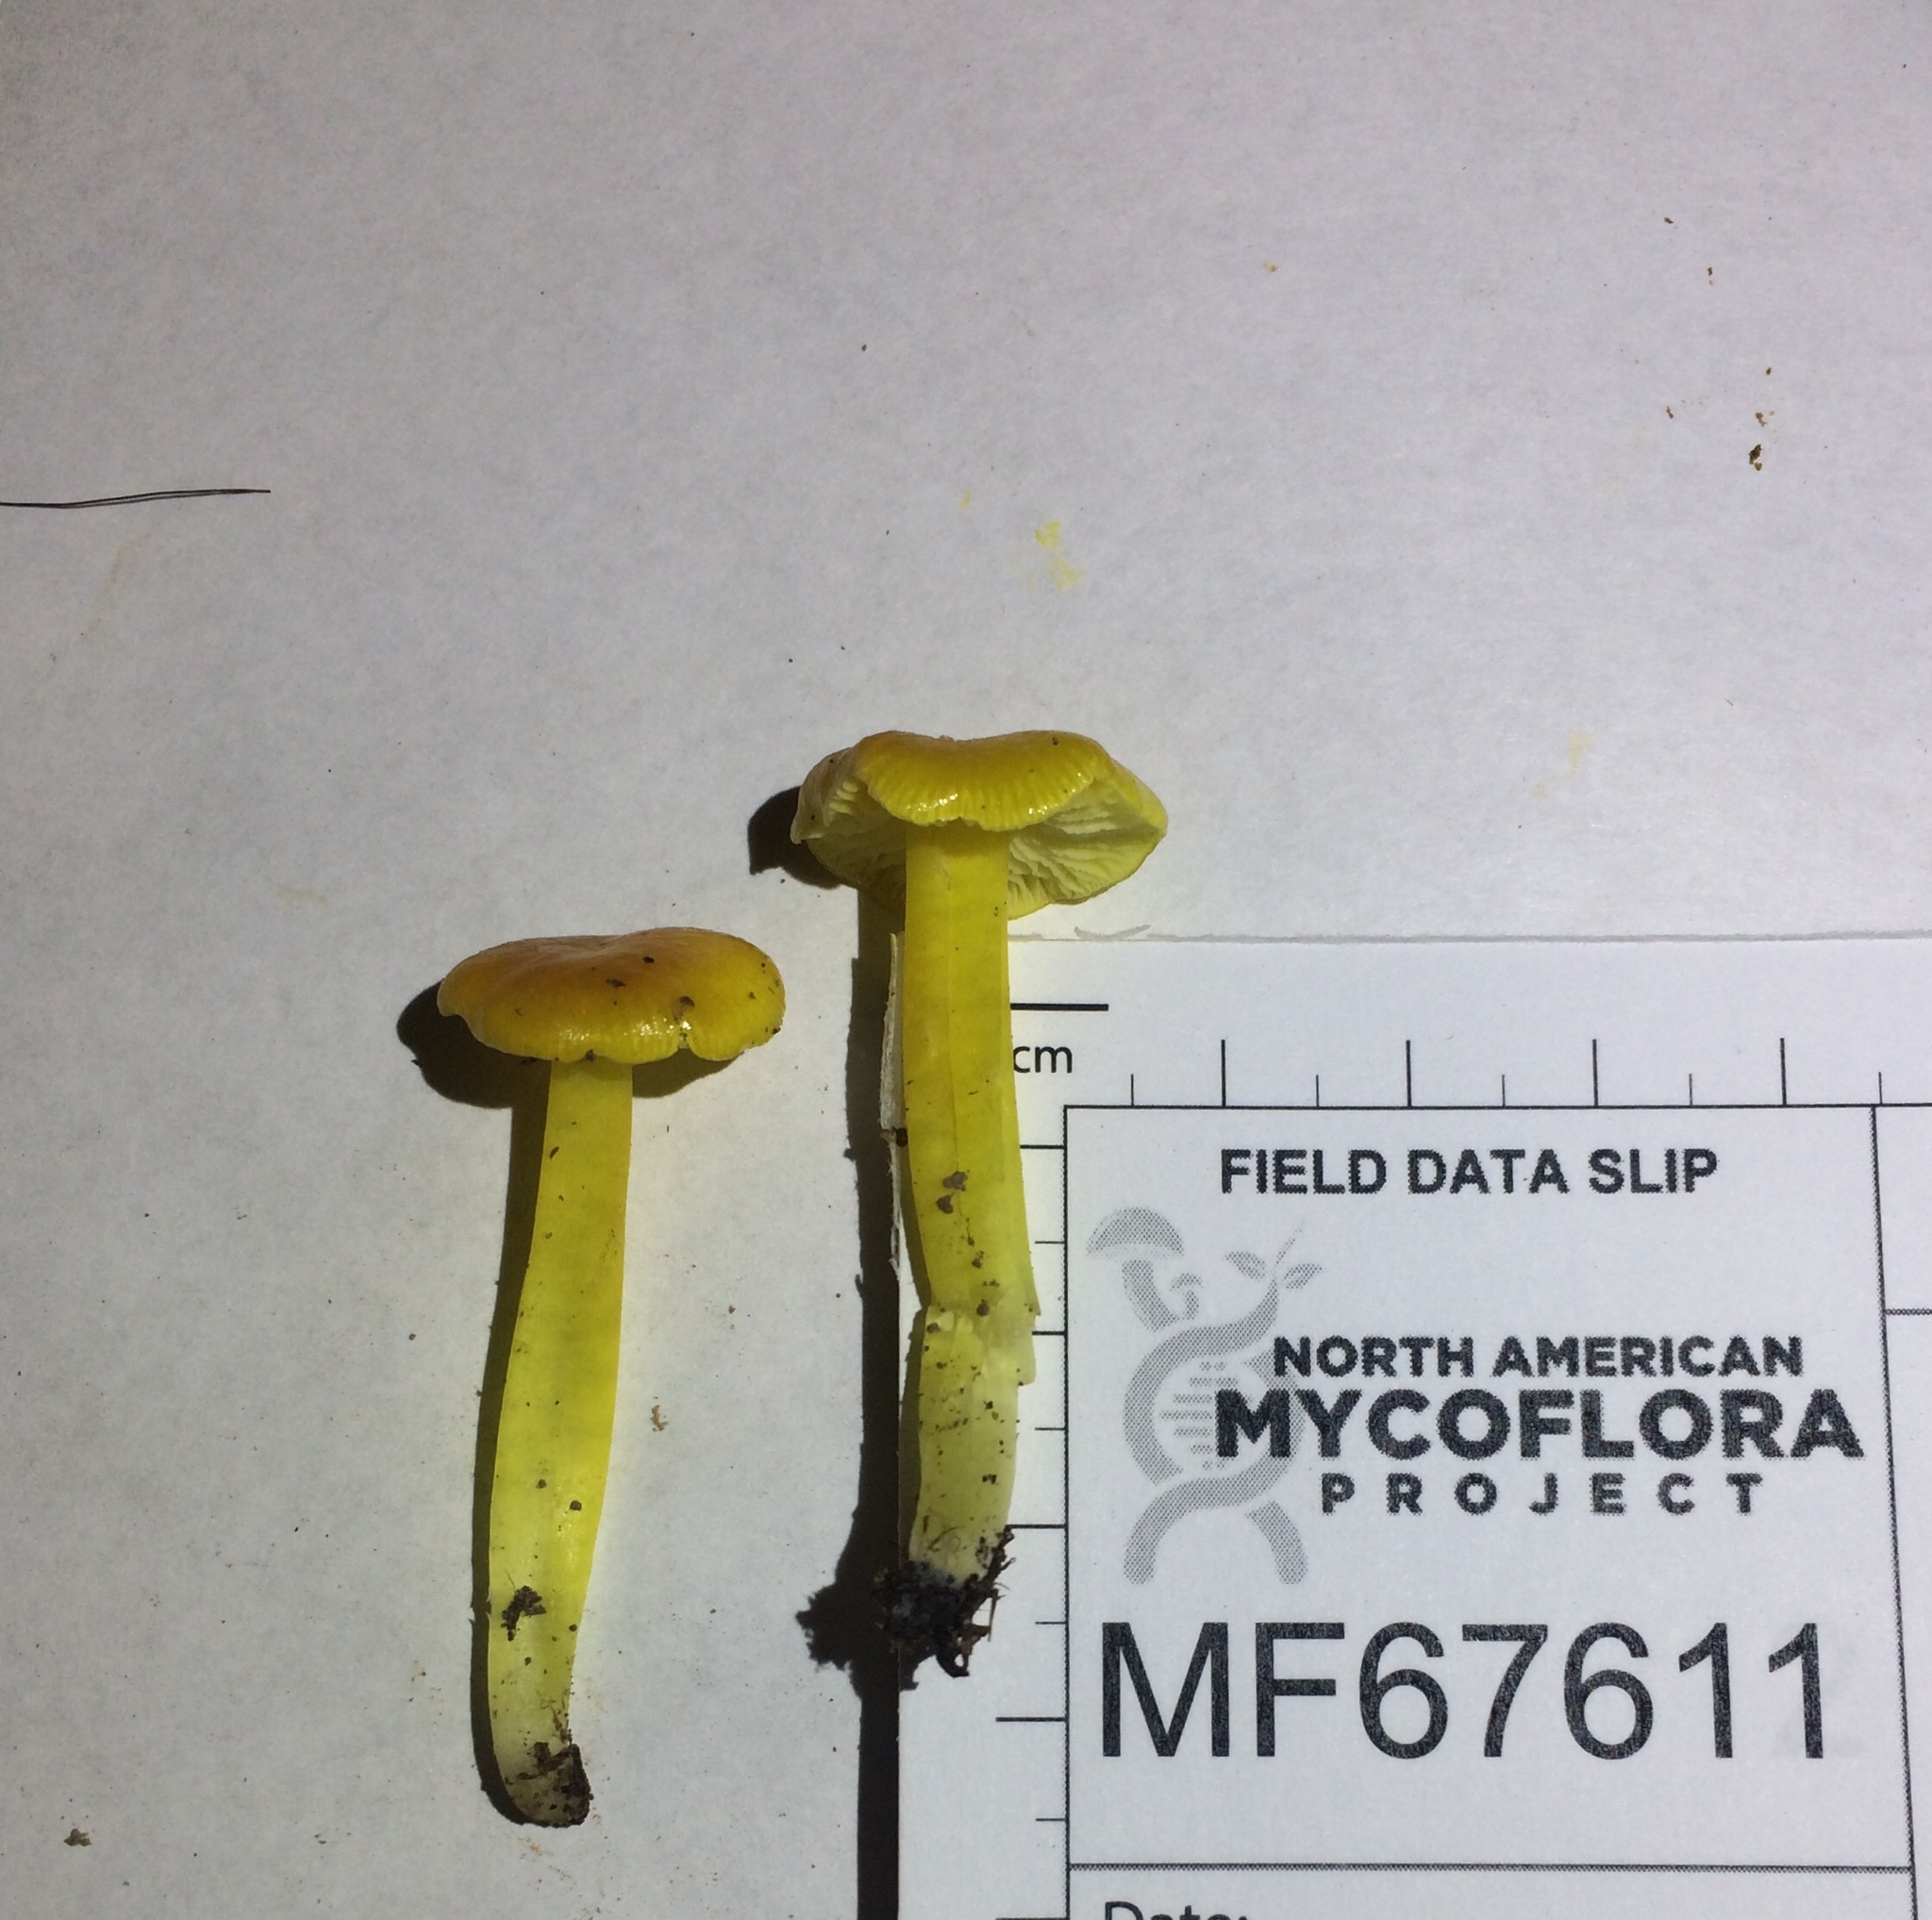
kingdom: Fungi
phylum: Basidiomycota
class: Agaricomycetes
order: Agaricales
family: Hygrophoraceae
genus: Hygrocybe
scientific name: Hygrocybe flavescens
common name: Golden waxy cap
